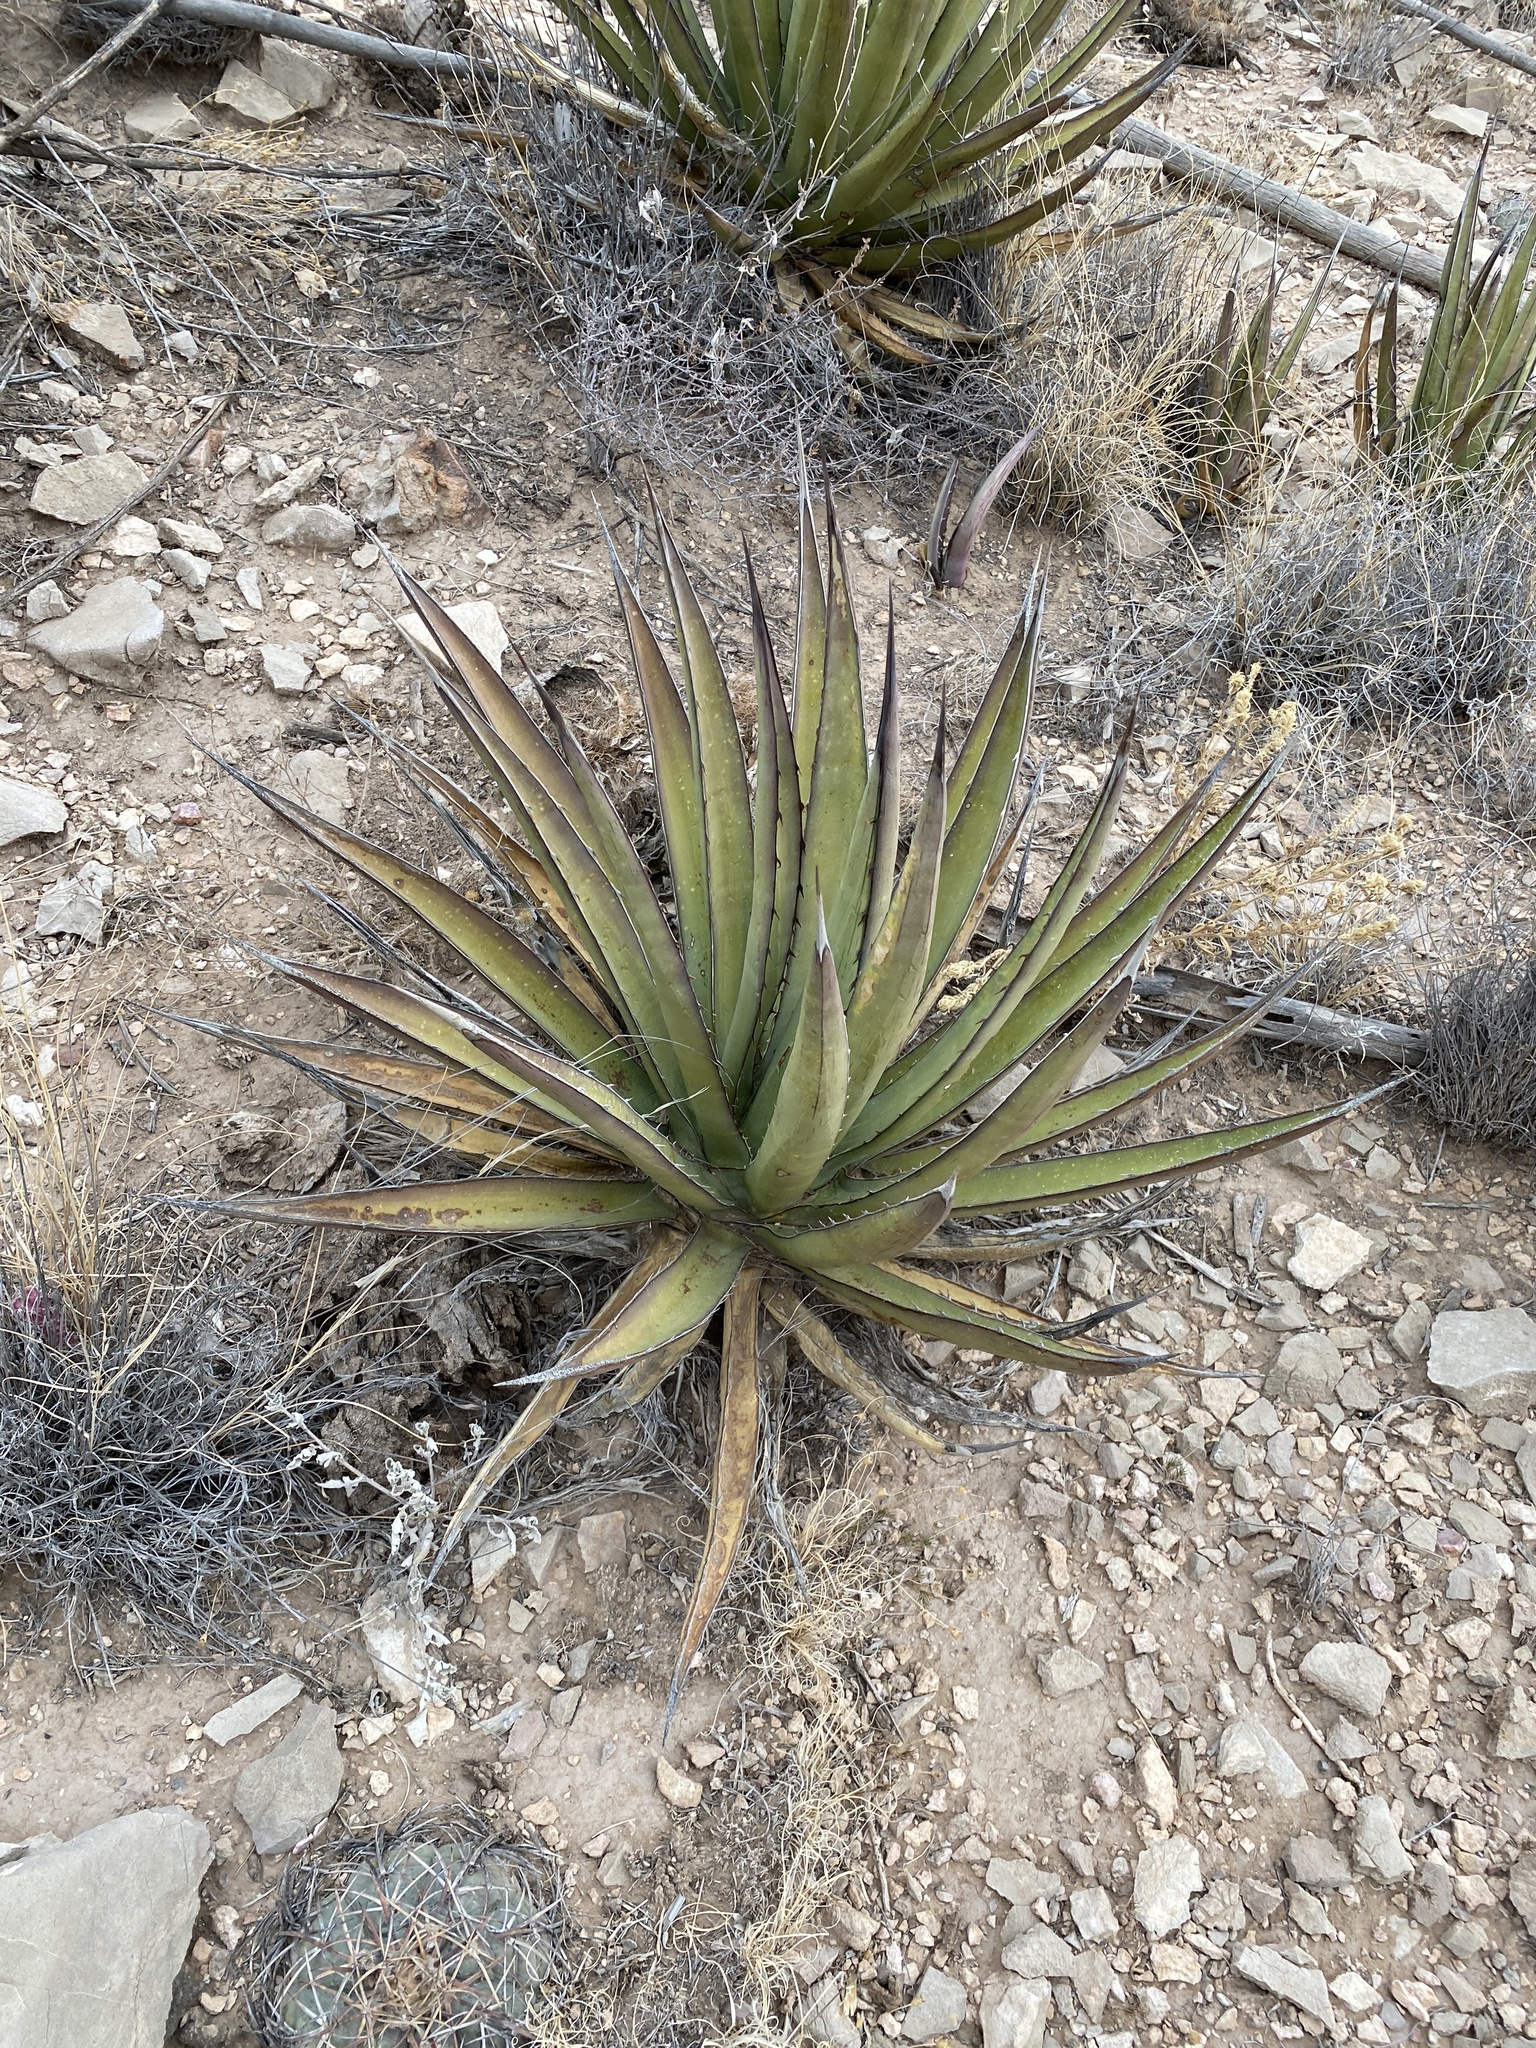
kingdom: Plantae
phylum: Tracheophyta
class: Liliopsida
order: Asparagales
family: Asparagaceae
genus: Agave
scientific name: Agave lechuguilla
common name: Lecheguilla agave
